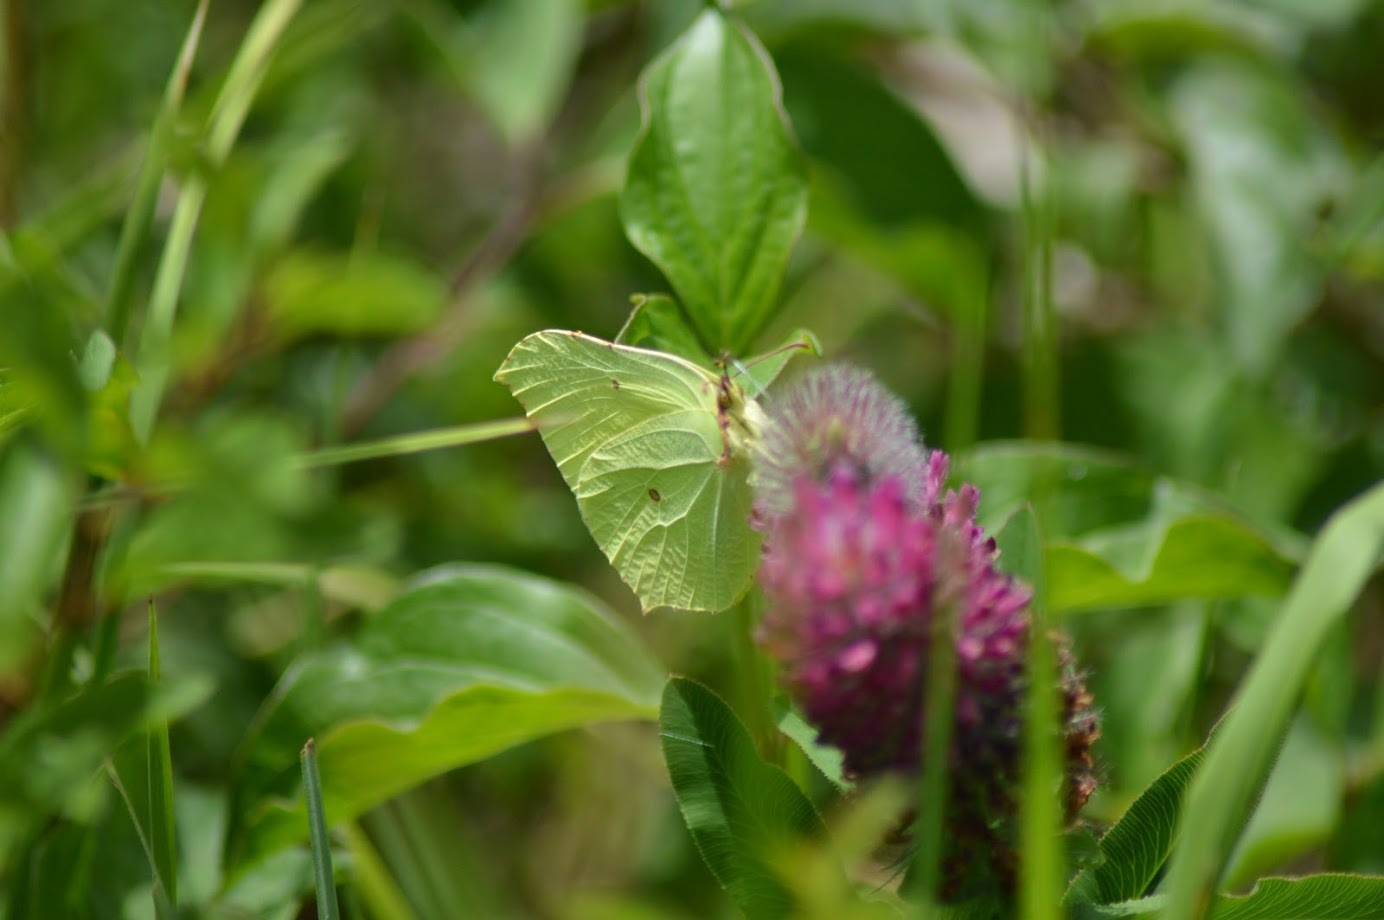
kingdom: Animalia
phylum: Arthropoda
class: Insecta
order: Lepidoptera
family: Pieridae
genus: Gonepteryx
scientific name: Gonepteryx rhamni
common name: Brimstone
